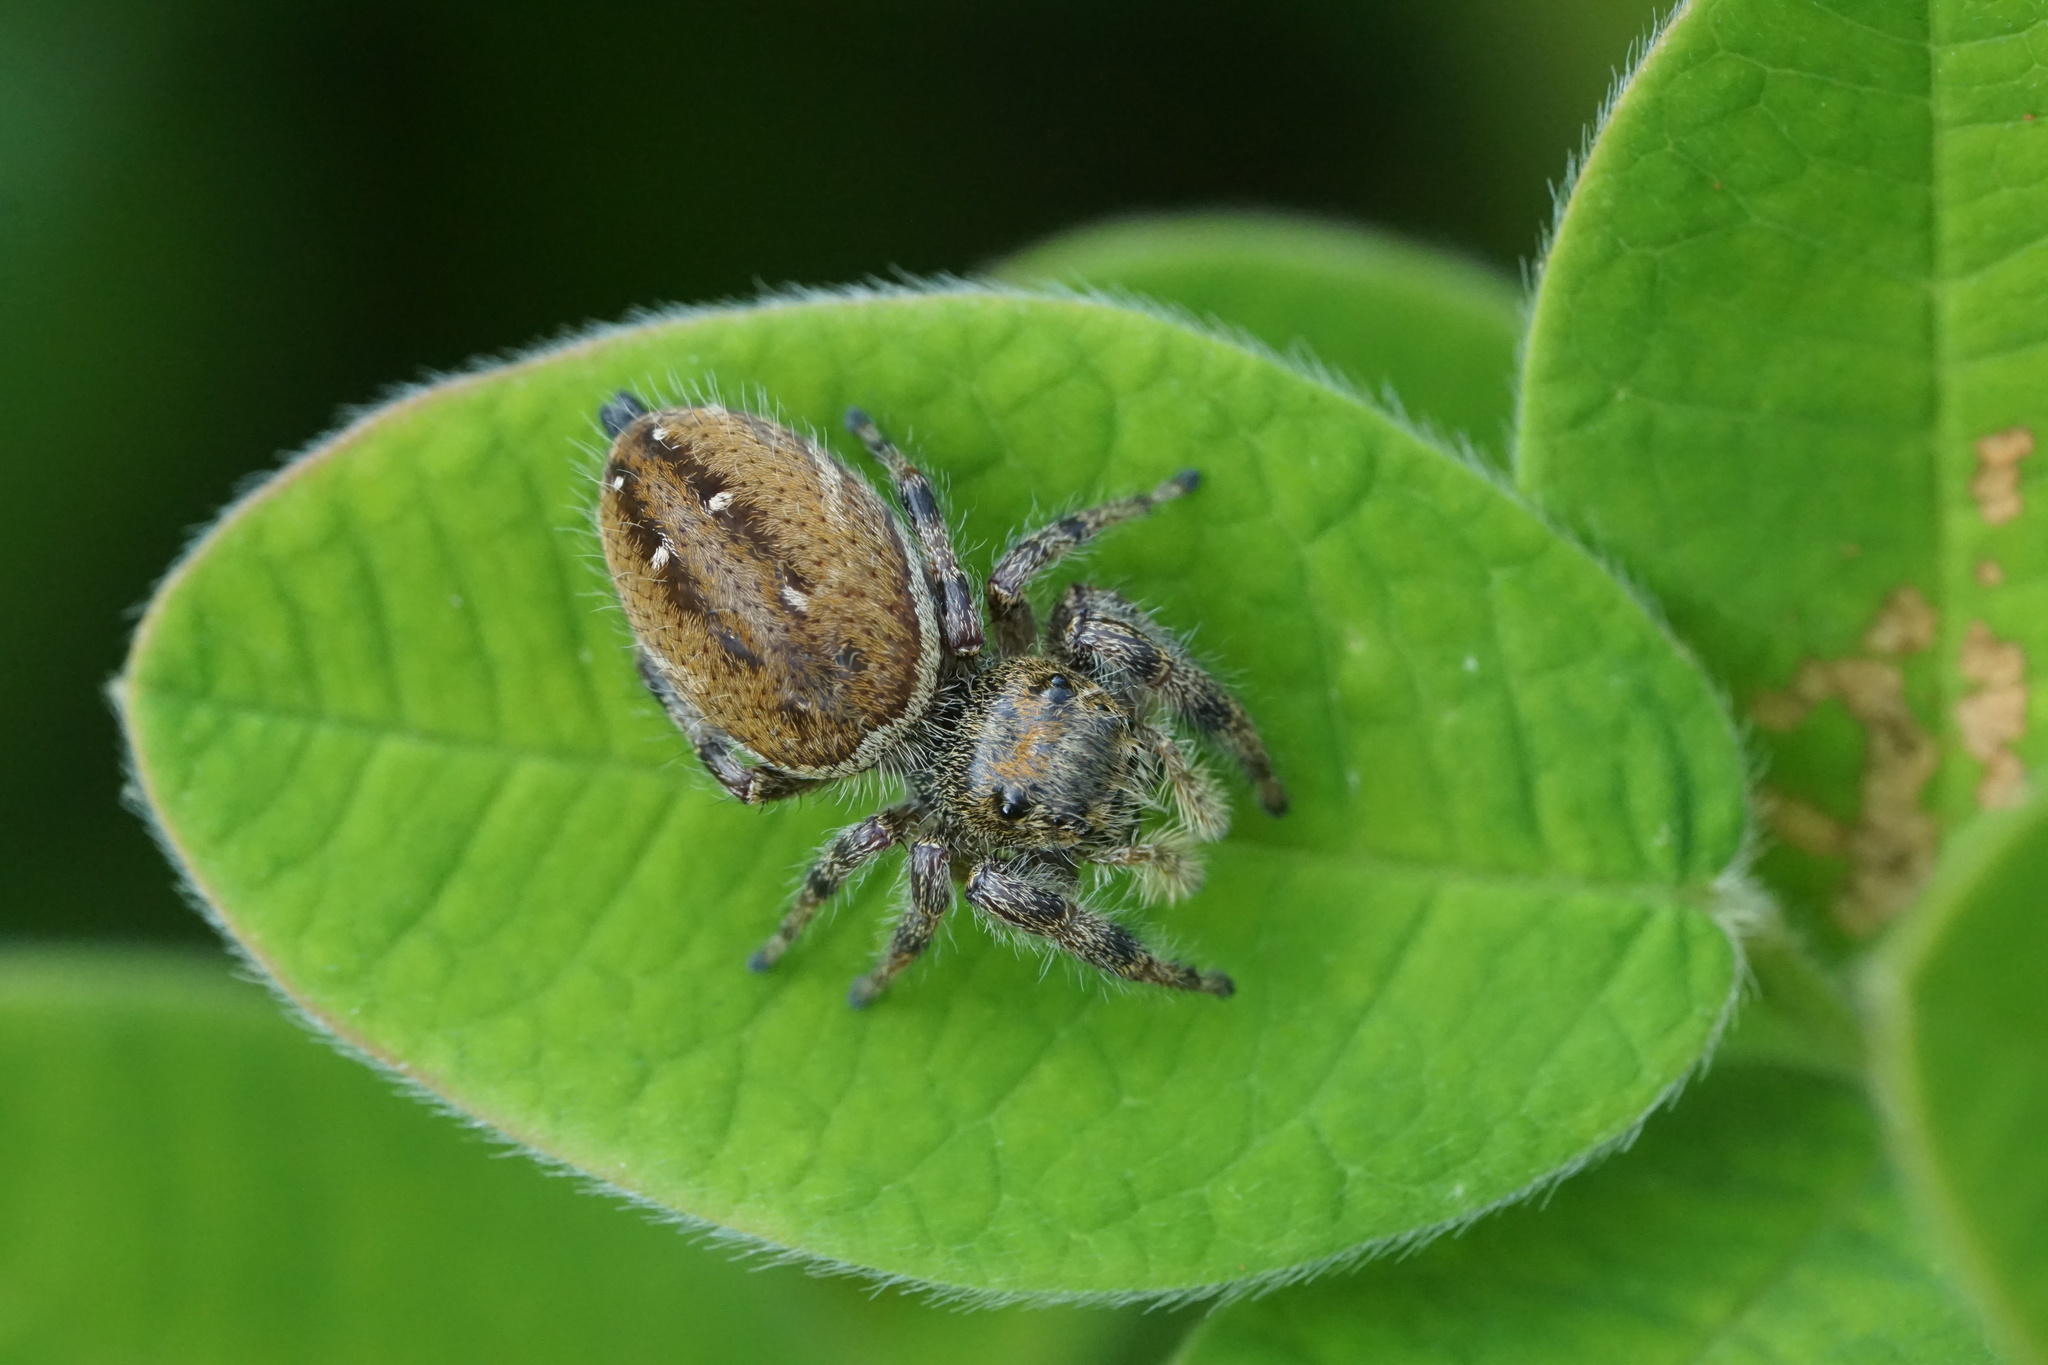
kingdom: Animalia
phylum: Arthropoda
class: Arachnida
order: Araneae
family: Salticidae
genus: Phidippus
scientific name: Phidippus clarus
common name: Brilliant jumping spider
